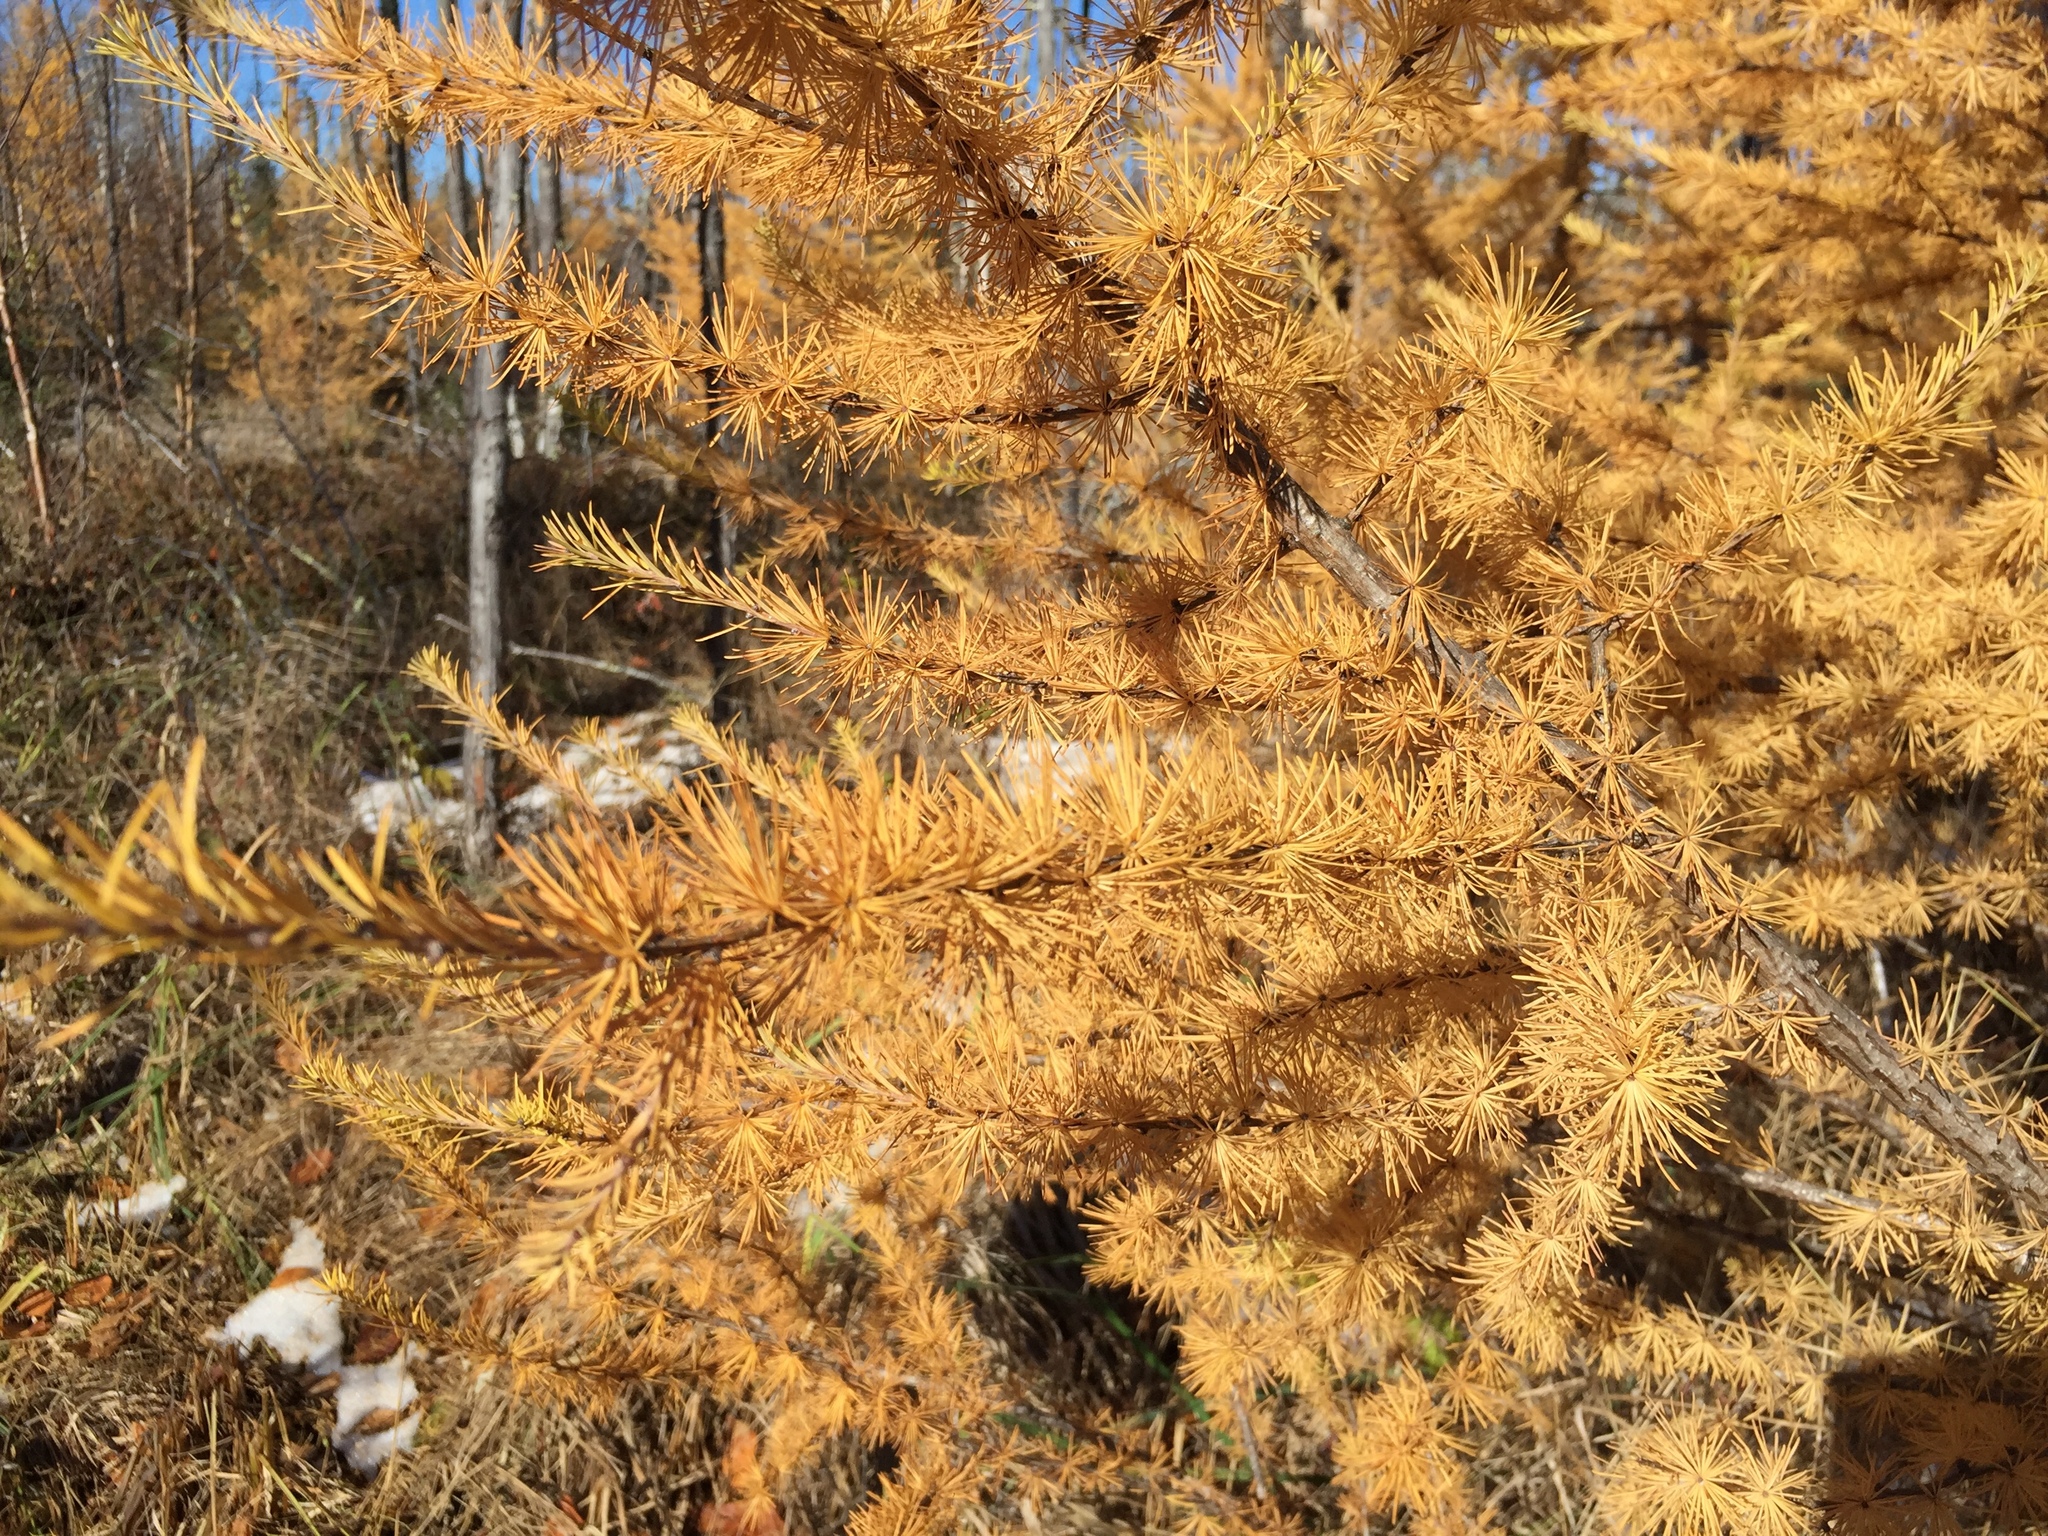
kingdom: Plantae
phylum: Tracheophyta
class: Pinopsida
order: Pinales
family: Pinaceae
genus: Larix
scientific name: Larix laricina
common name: American larch
